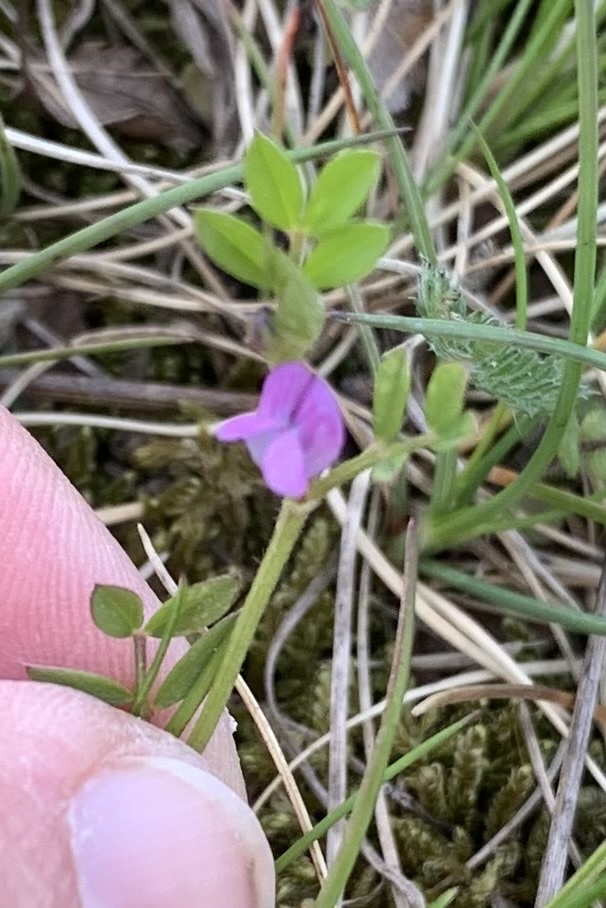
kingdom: Plantae
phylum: Tracheophyta
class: Magnoliopsida
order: Fabales
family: Fabaceae
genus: Vicia
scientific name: Vicia lathyroides
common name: Spring vetch
